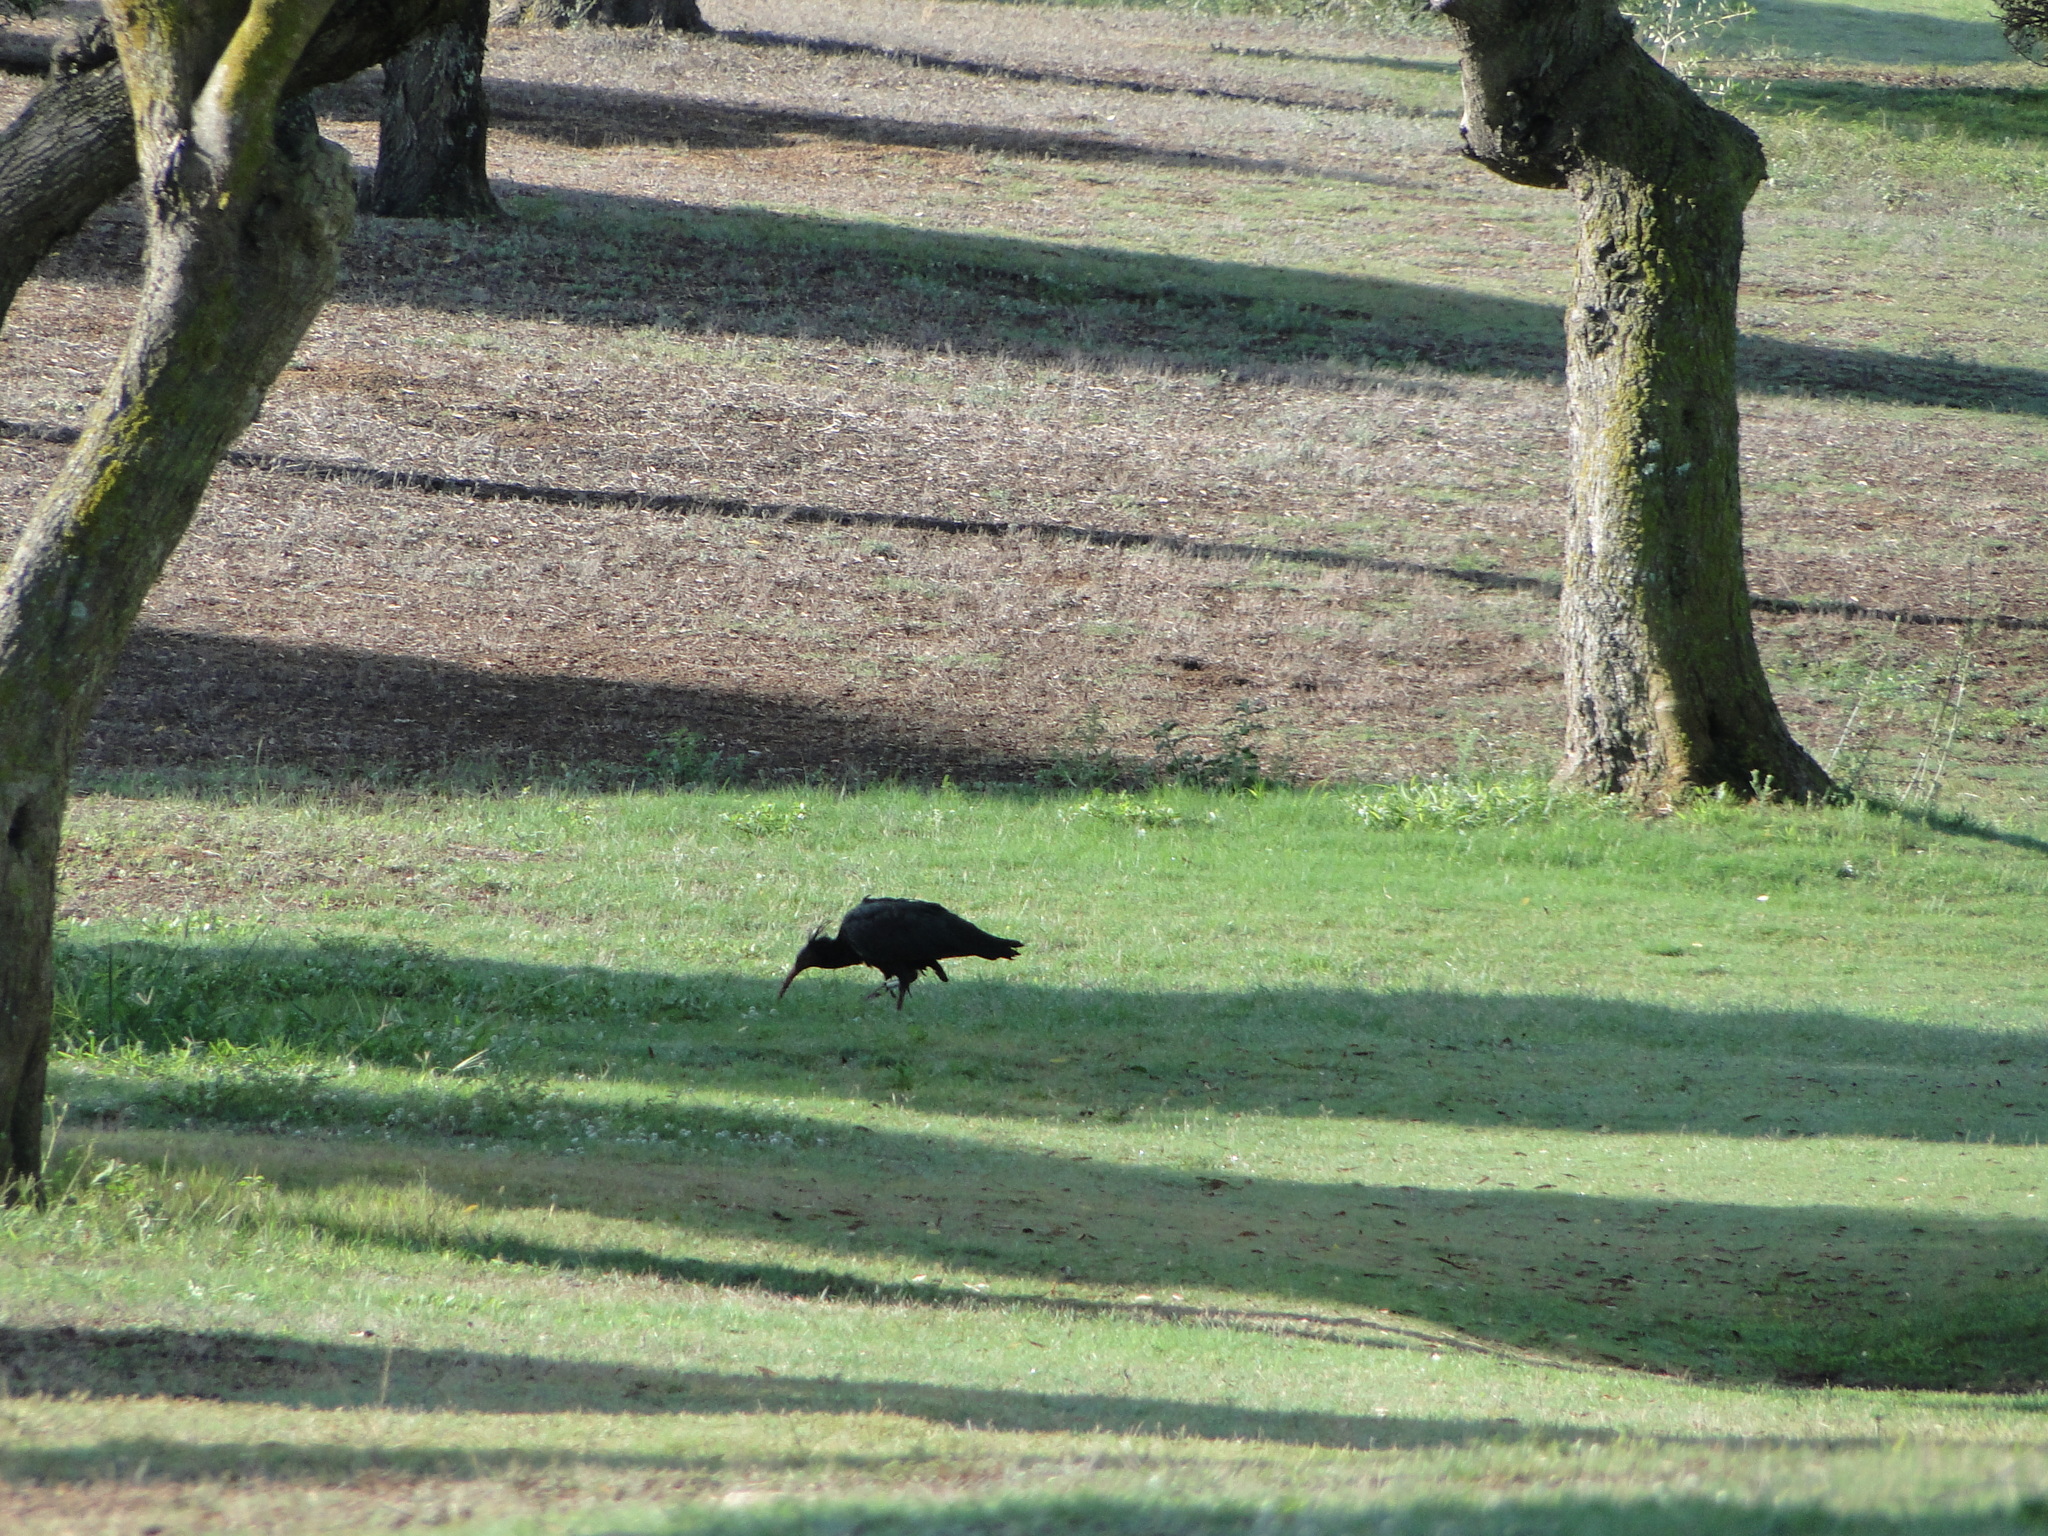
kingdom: Animalia
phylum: Chordata
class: Aves
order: Pelecaniformes
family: Threskiornithidae
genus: Geronticus
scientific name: Geronticus eremita
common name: Northern bald ibis
